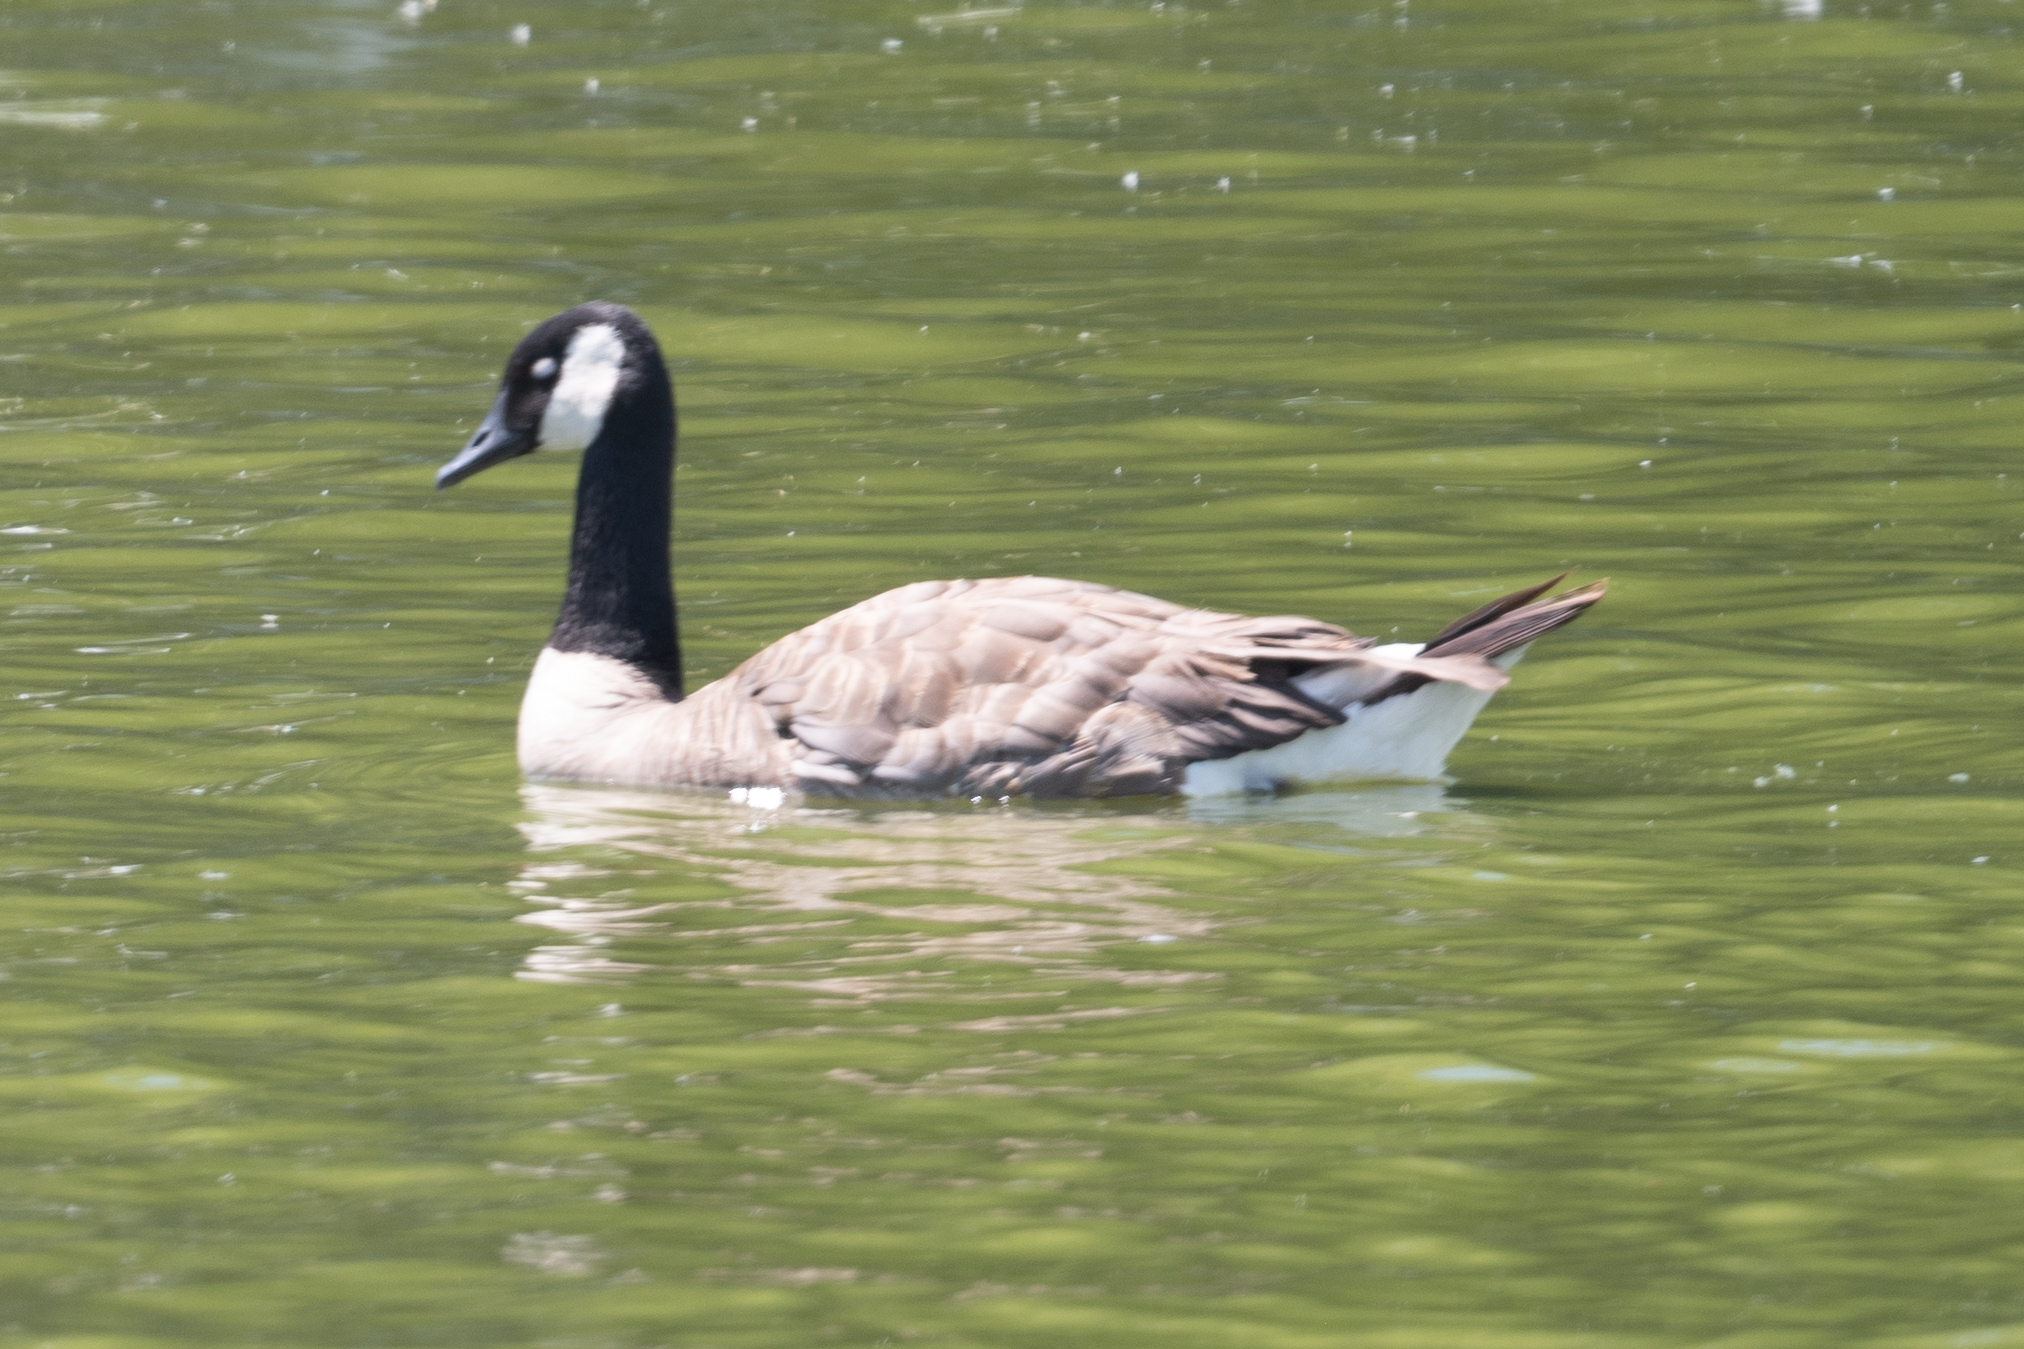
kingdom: Animalia
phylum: Chordata
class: Aves
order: Anseriformes
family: Anatidae
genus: Branta
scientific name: Branta canadensis
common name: Canada goose
